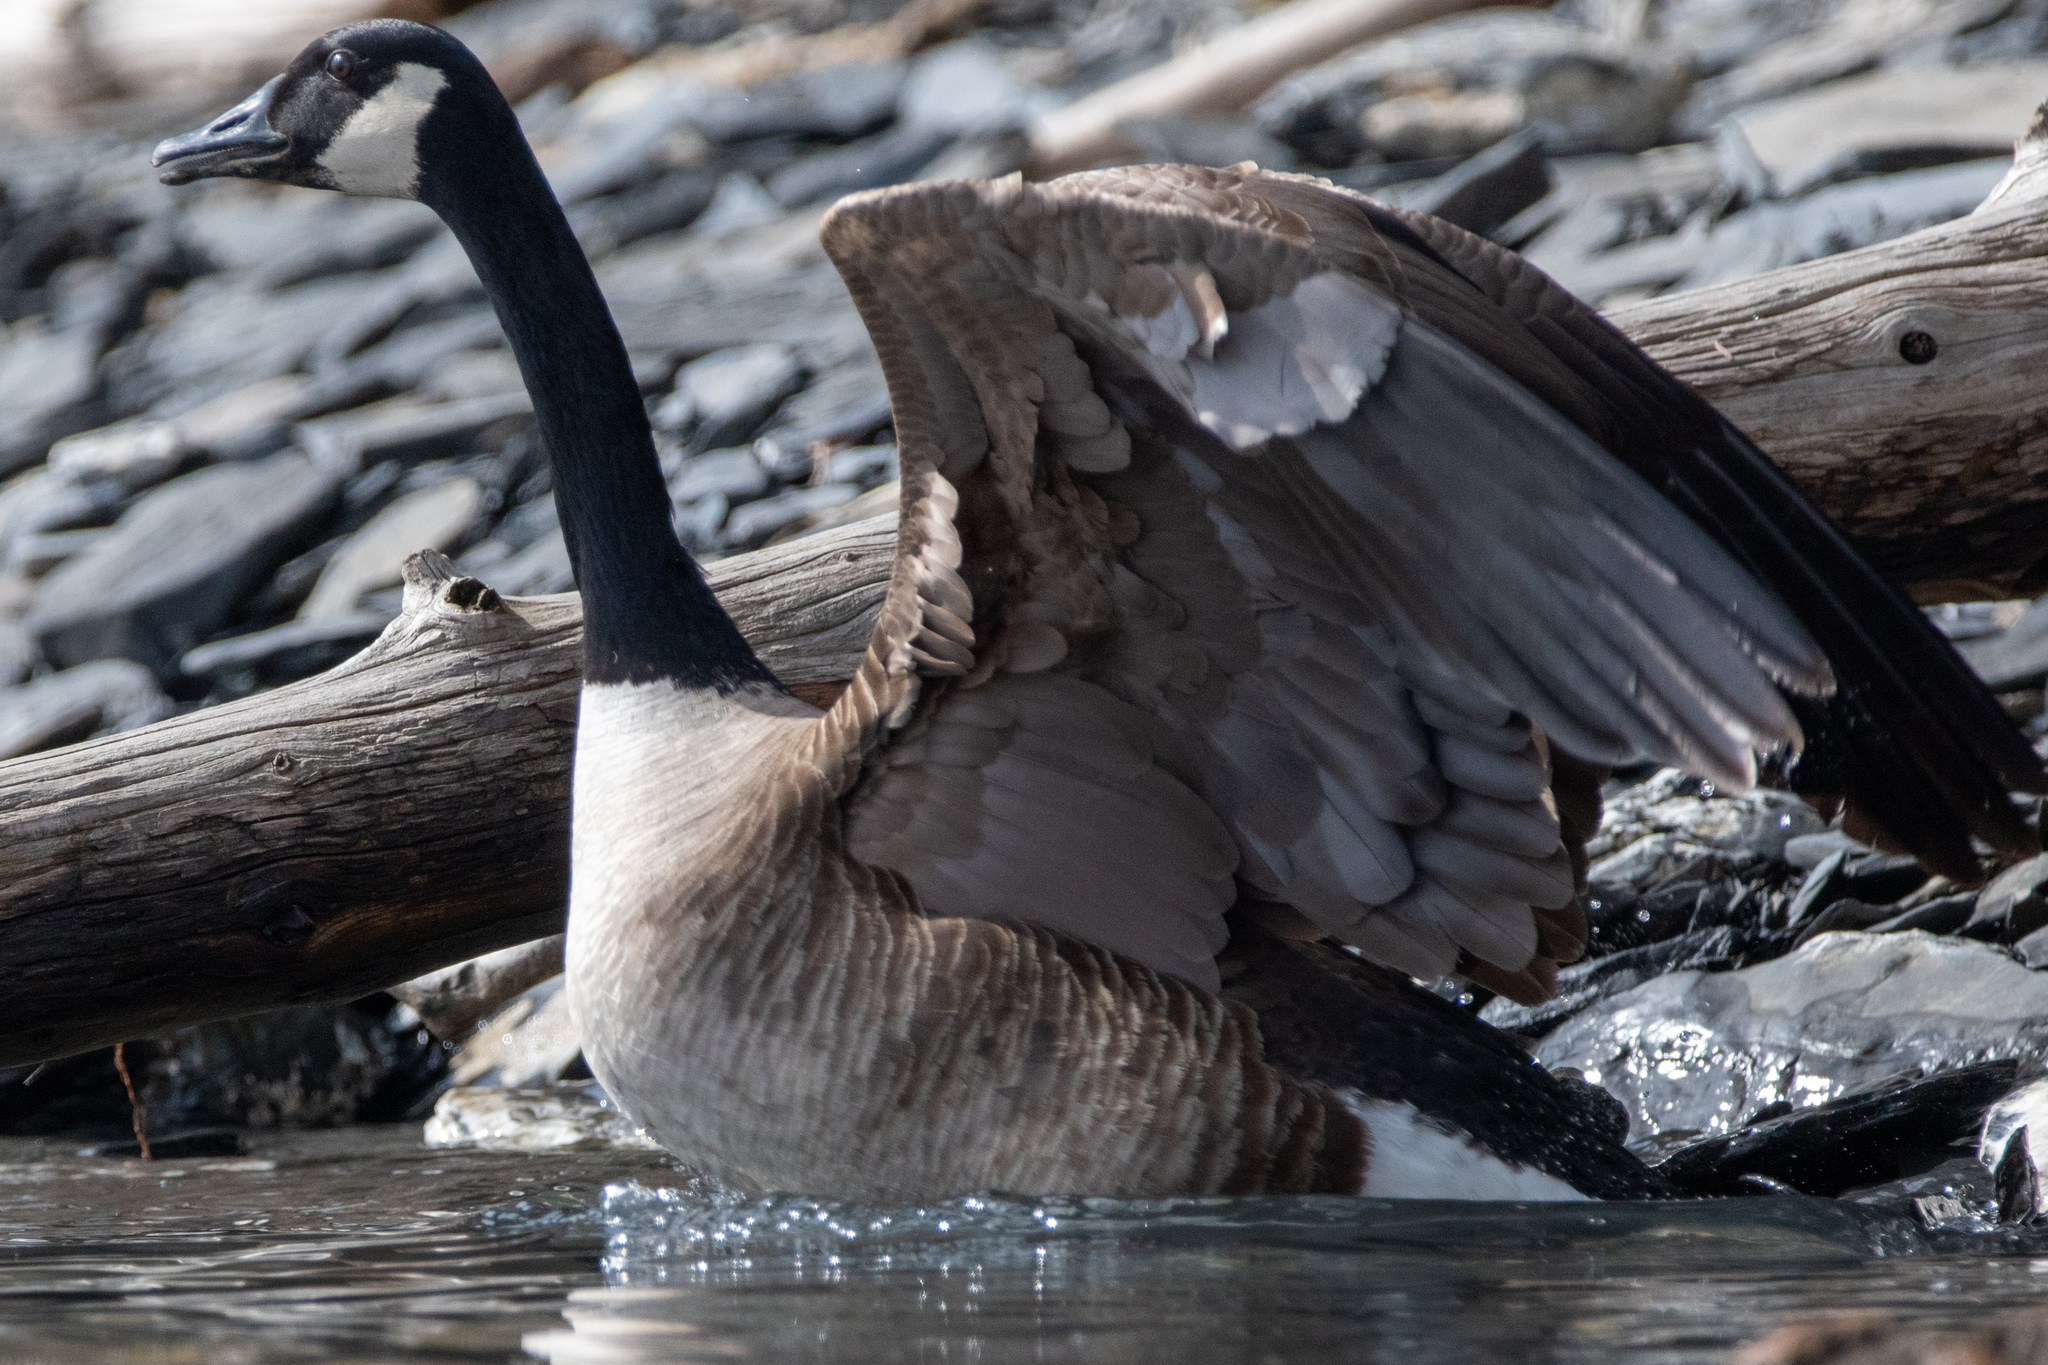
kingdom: Animalia
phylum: Chordata
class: Aves
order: Anseriformes
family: Anatidae
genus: Branta
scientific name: Branta canadensis
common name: Canada goose
